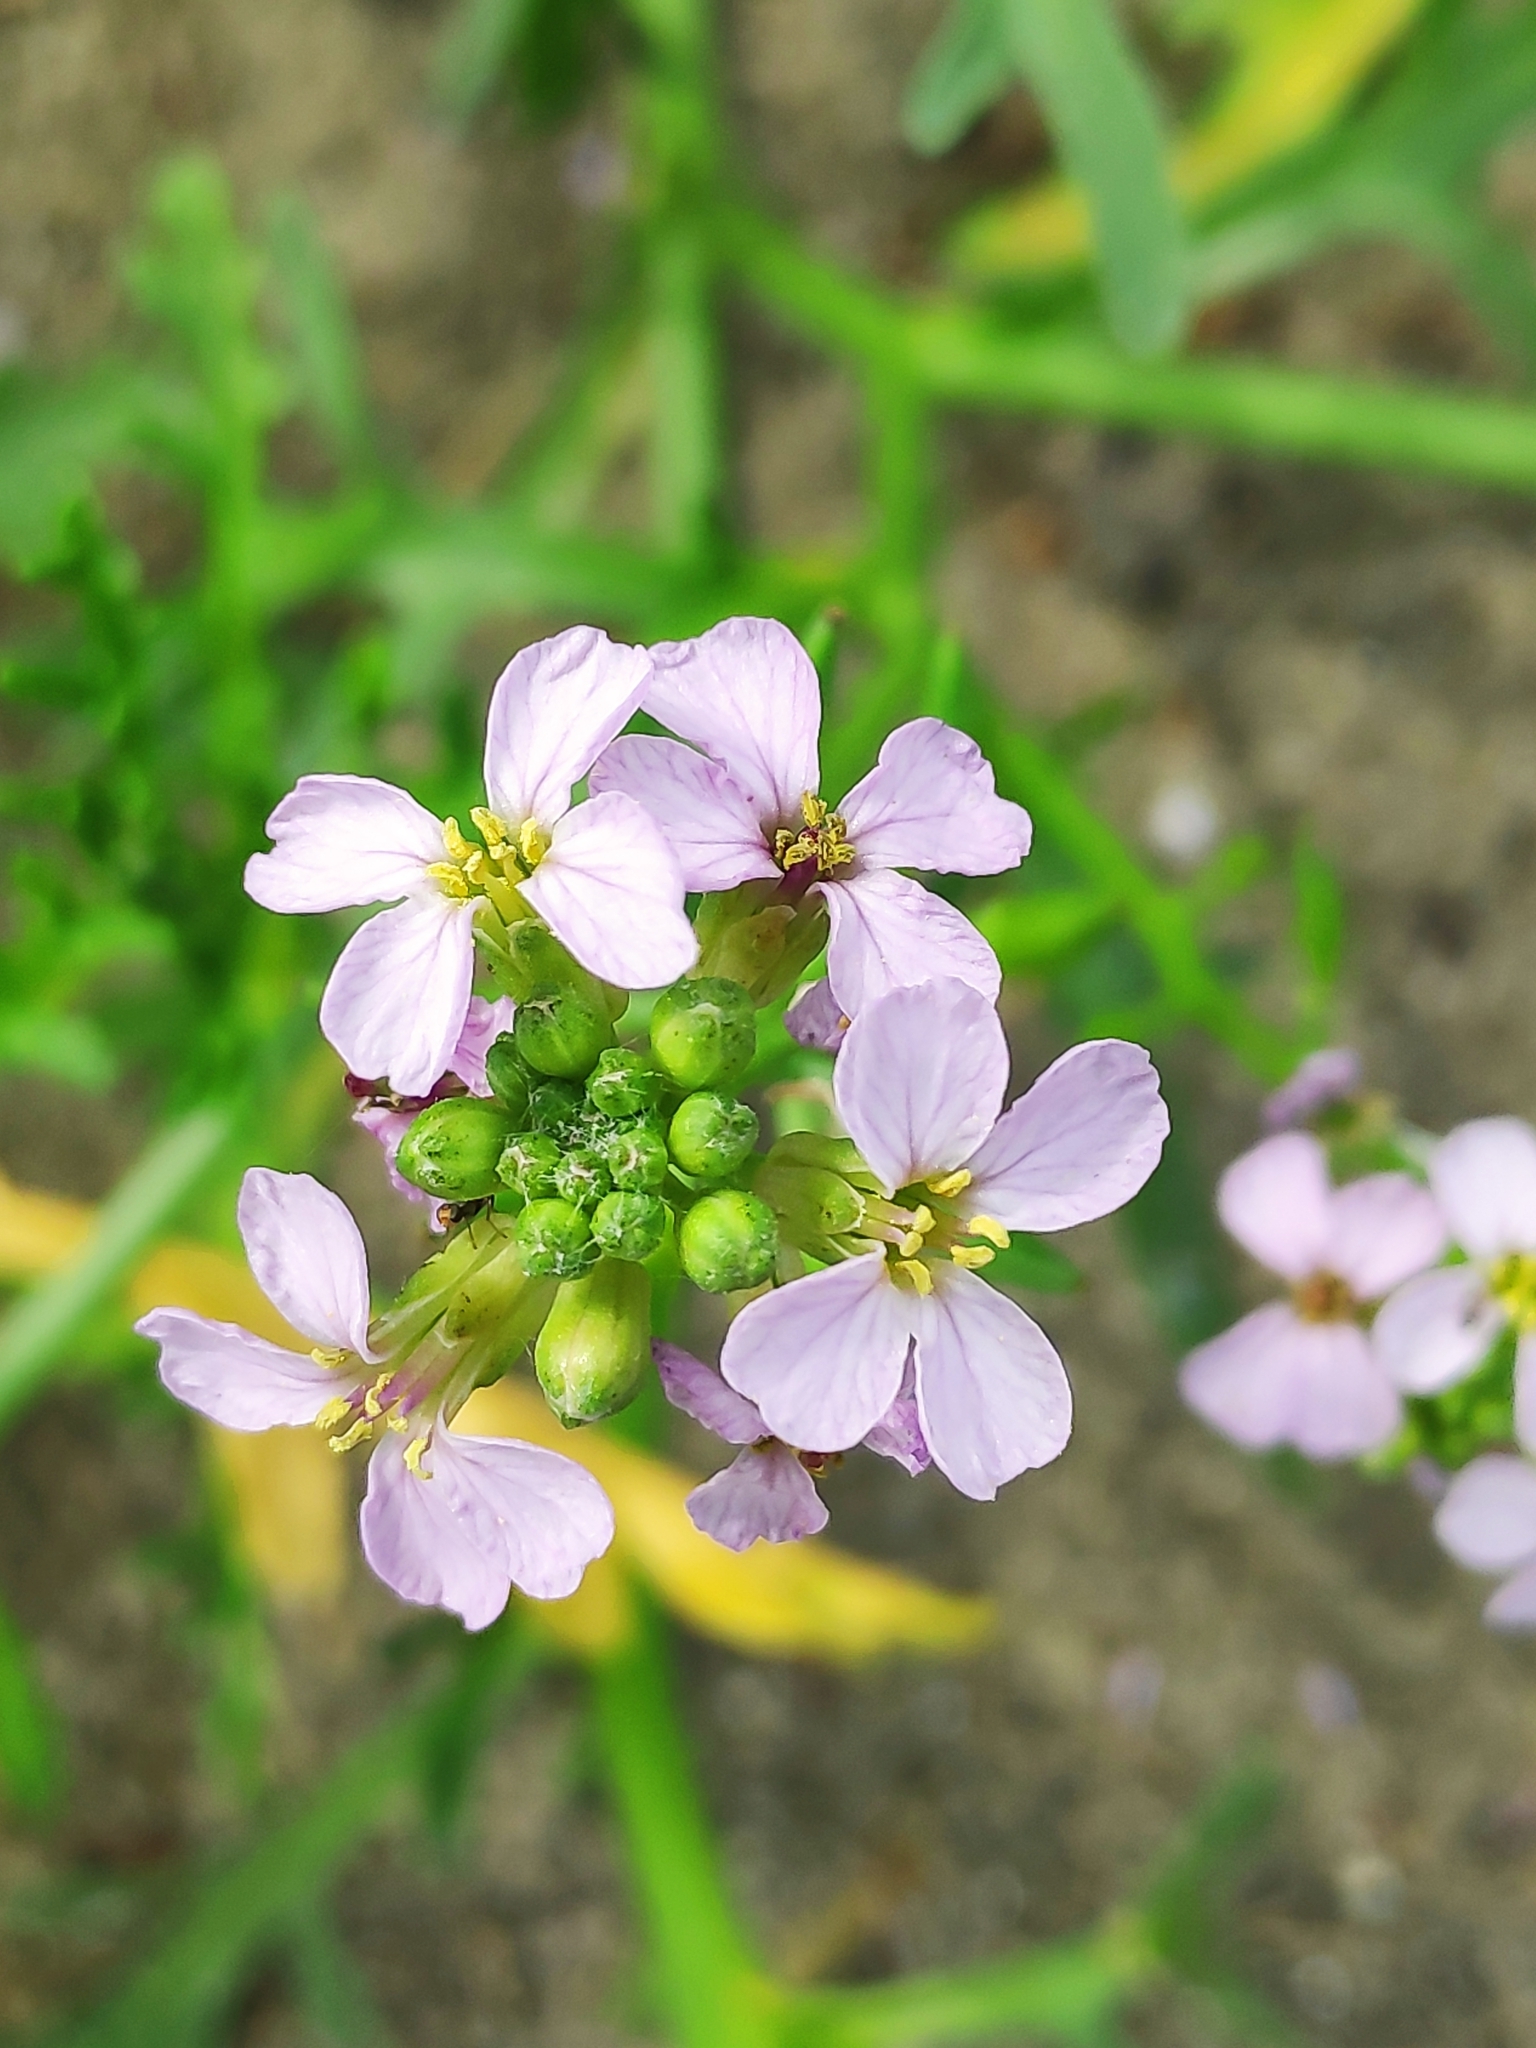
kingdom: Plantae
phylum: Tracheophyta
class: Magnoliopsida
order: Brassicales
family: Brassicaceae
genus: Cakile
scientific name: Cakile maritima
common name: Sea rocket
